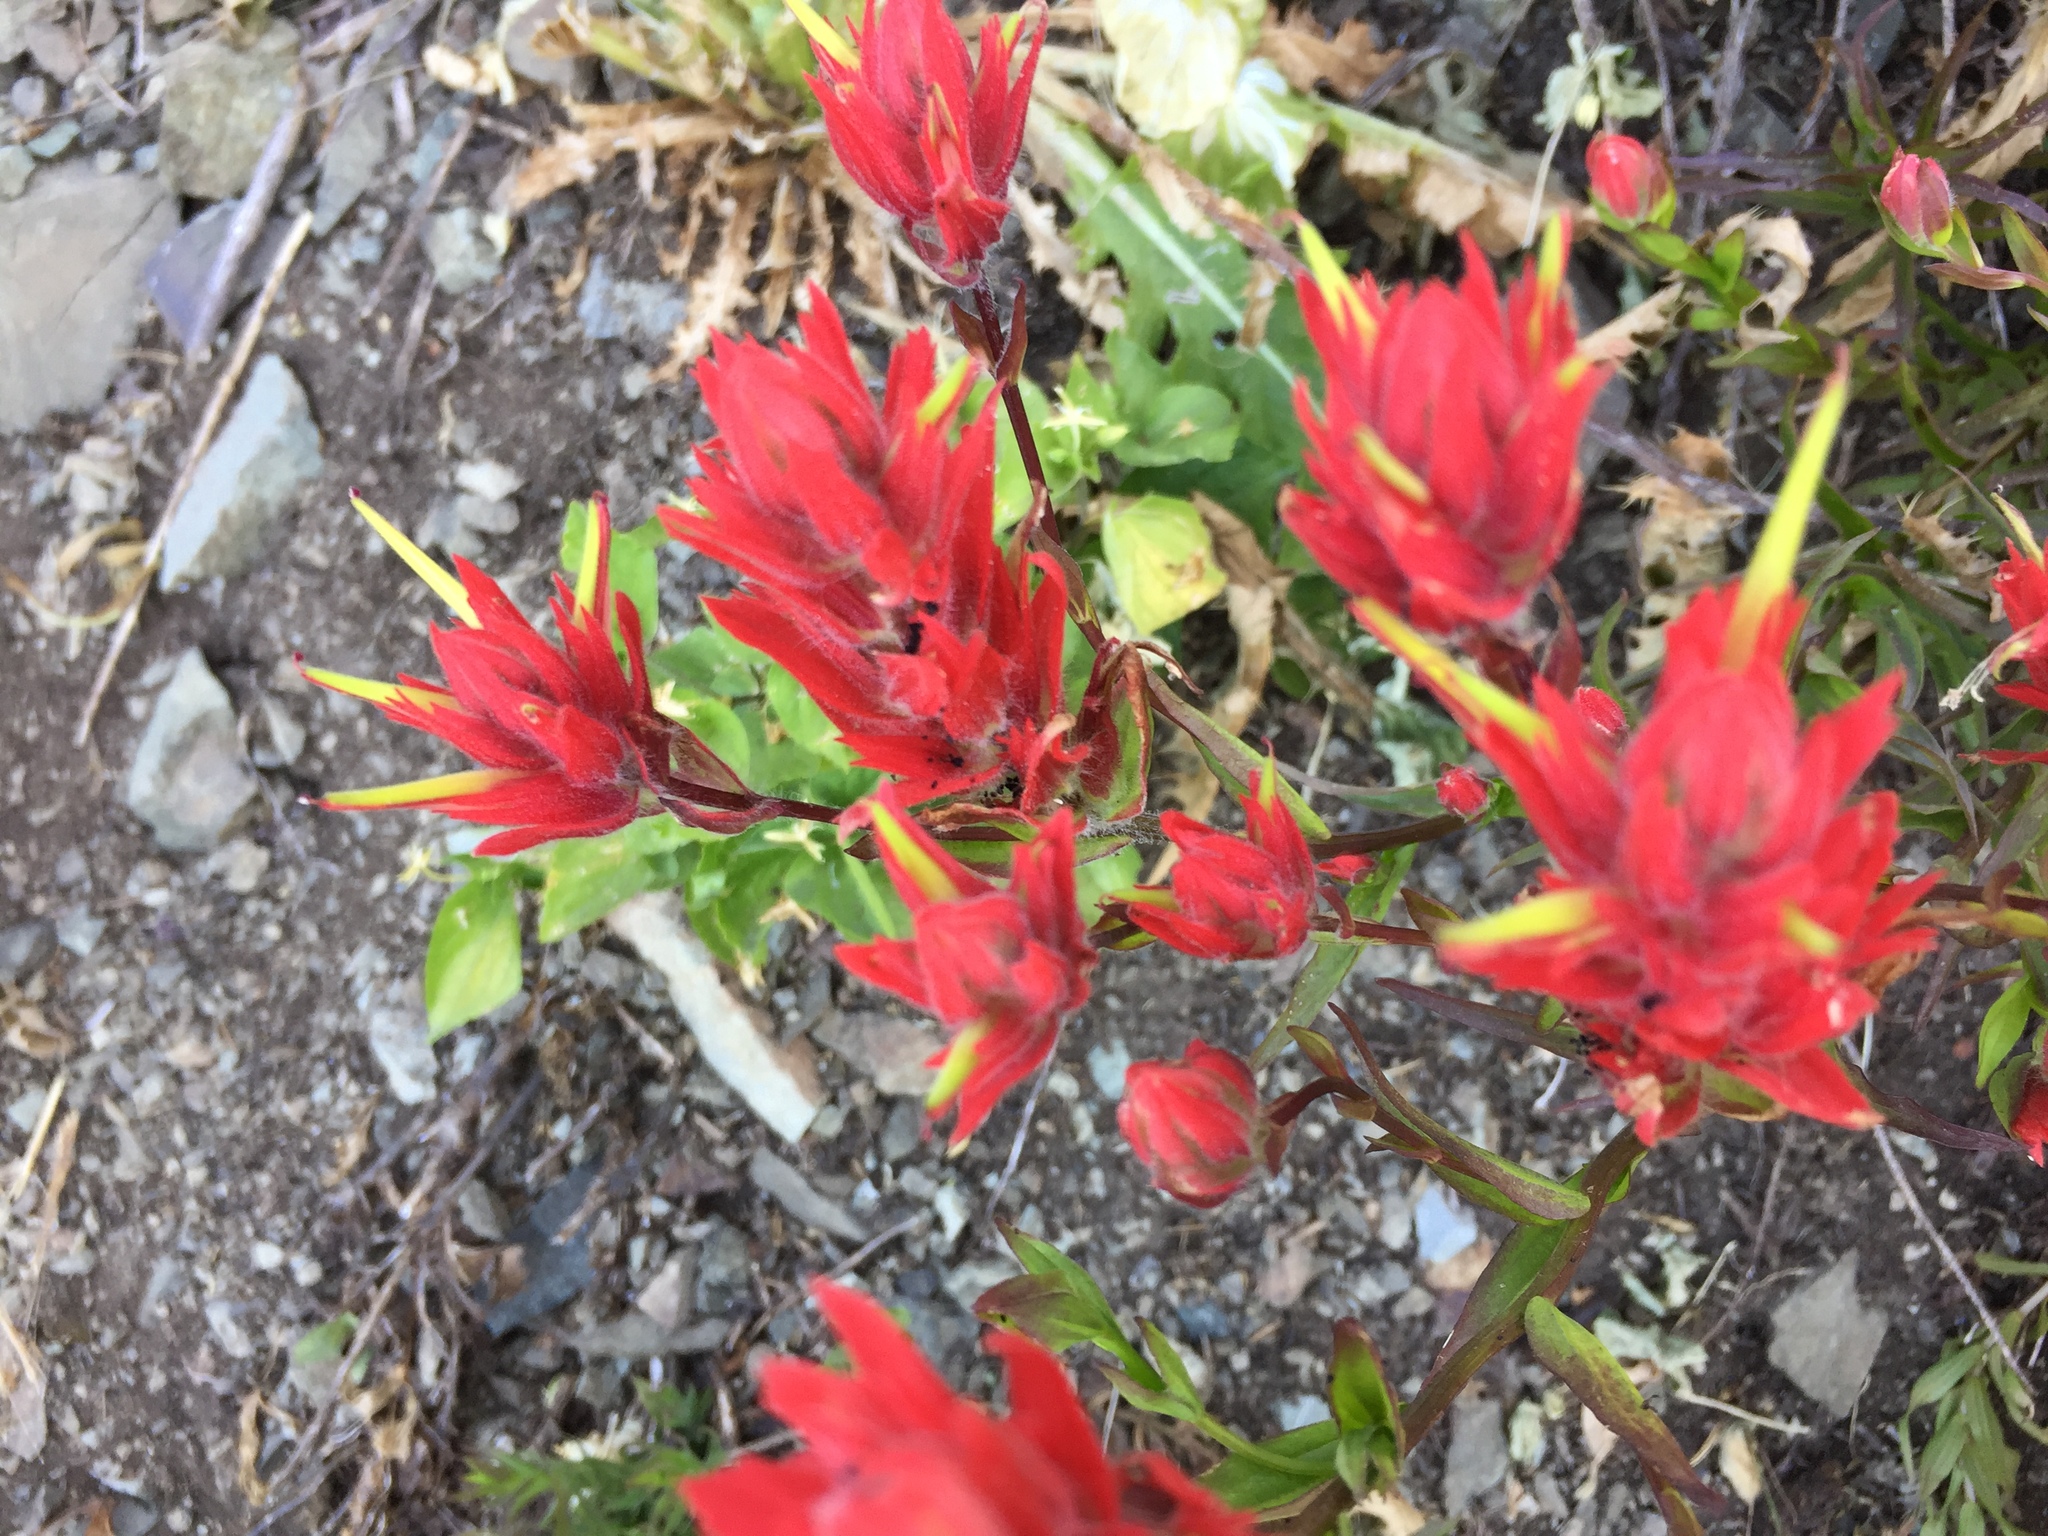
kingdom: Plantae
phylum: Tracheophyta
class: Magnoliopsida
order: Lamiales
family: Orobanchaceae
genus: Castilleja
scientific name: Castilleja miniata
